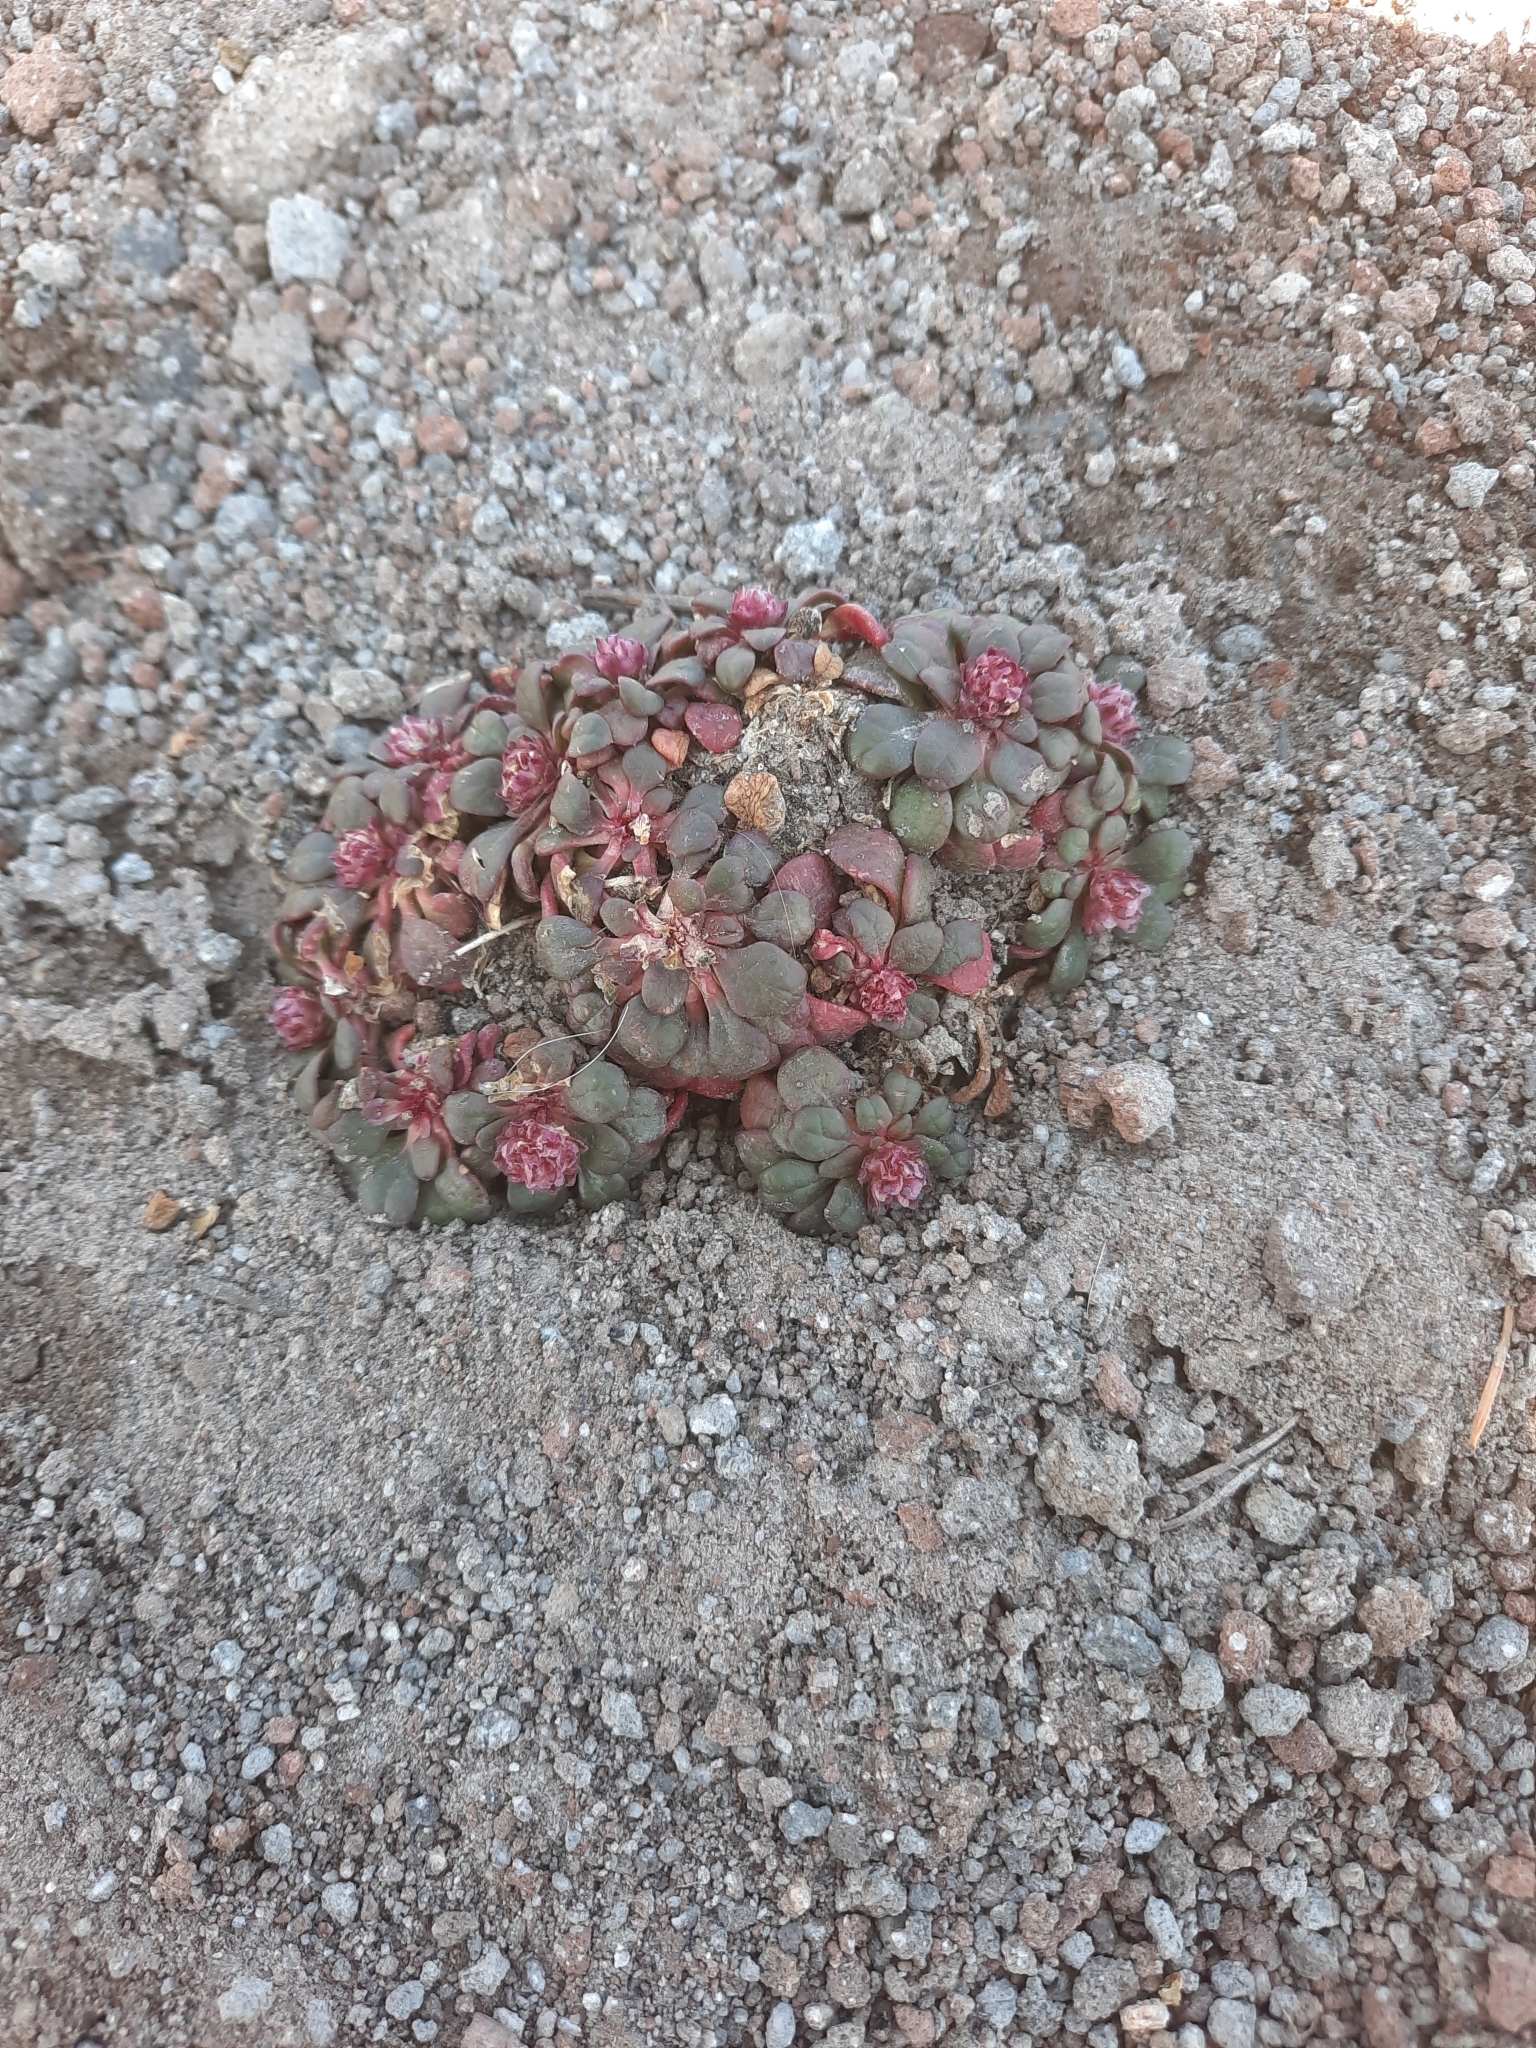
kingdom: Plantae
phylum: Tracheophyta
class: Magnoliopsida
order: Caryophyllales
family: Montiaceae
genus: Calyptridium
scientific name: Calyptridium umbellatum
